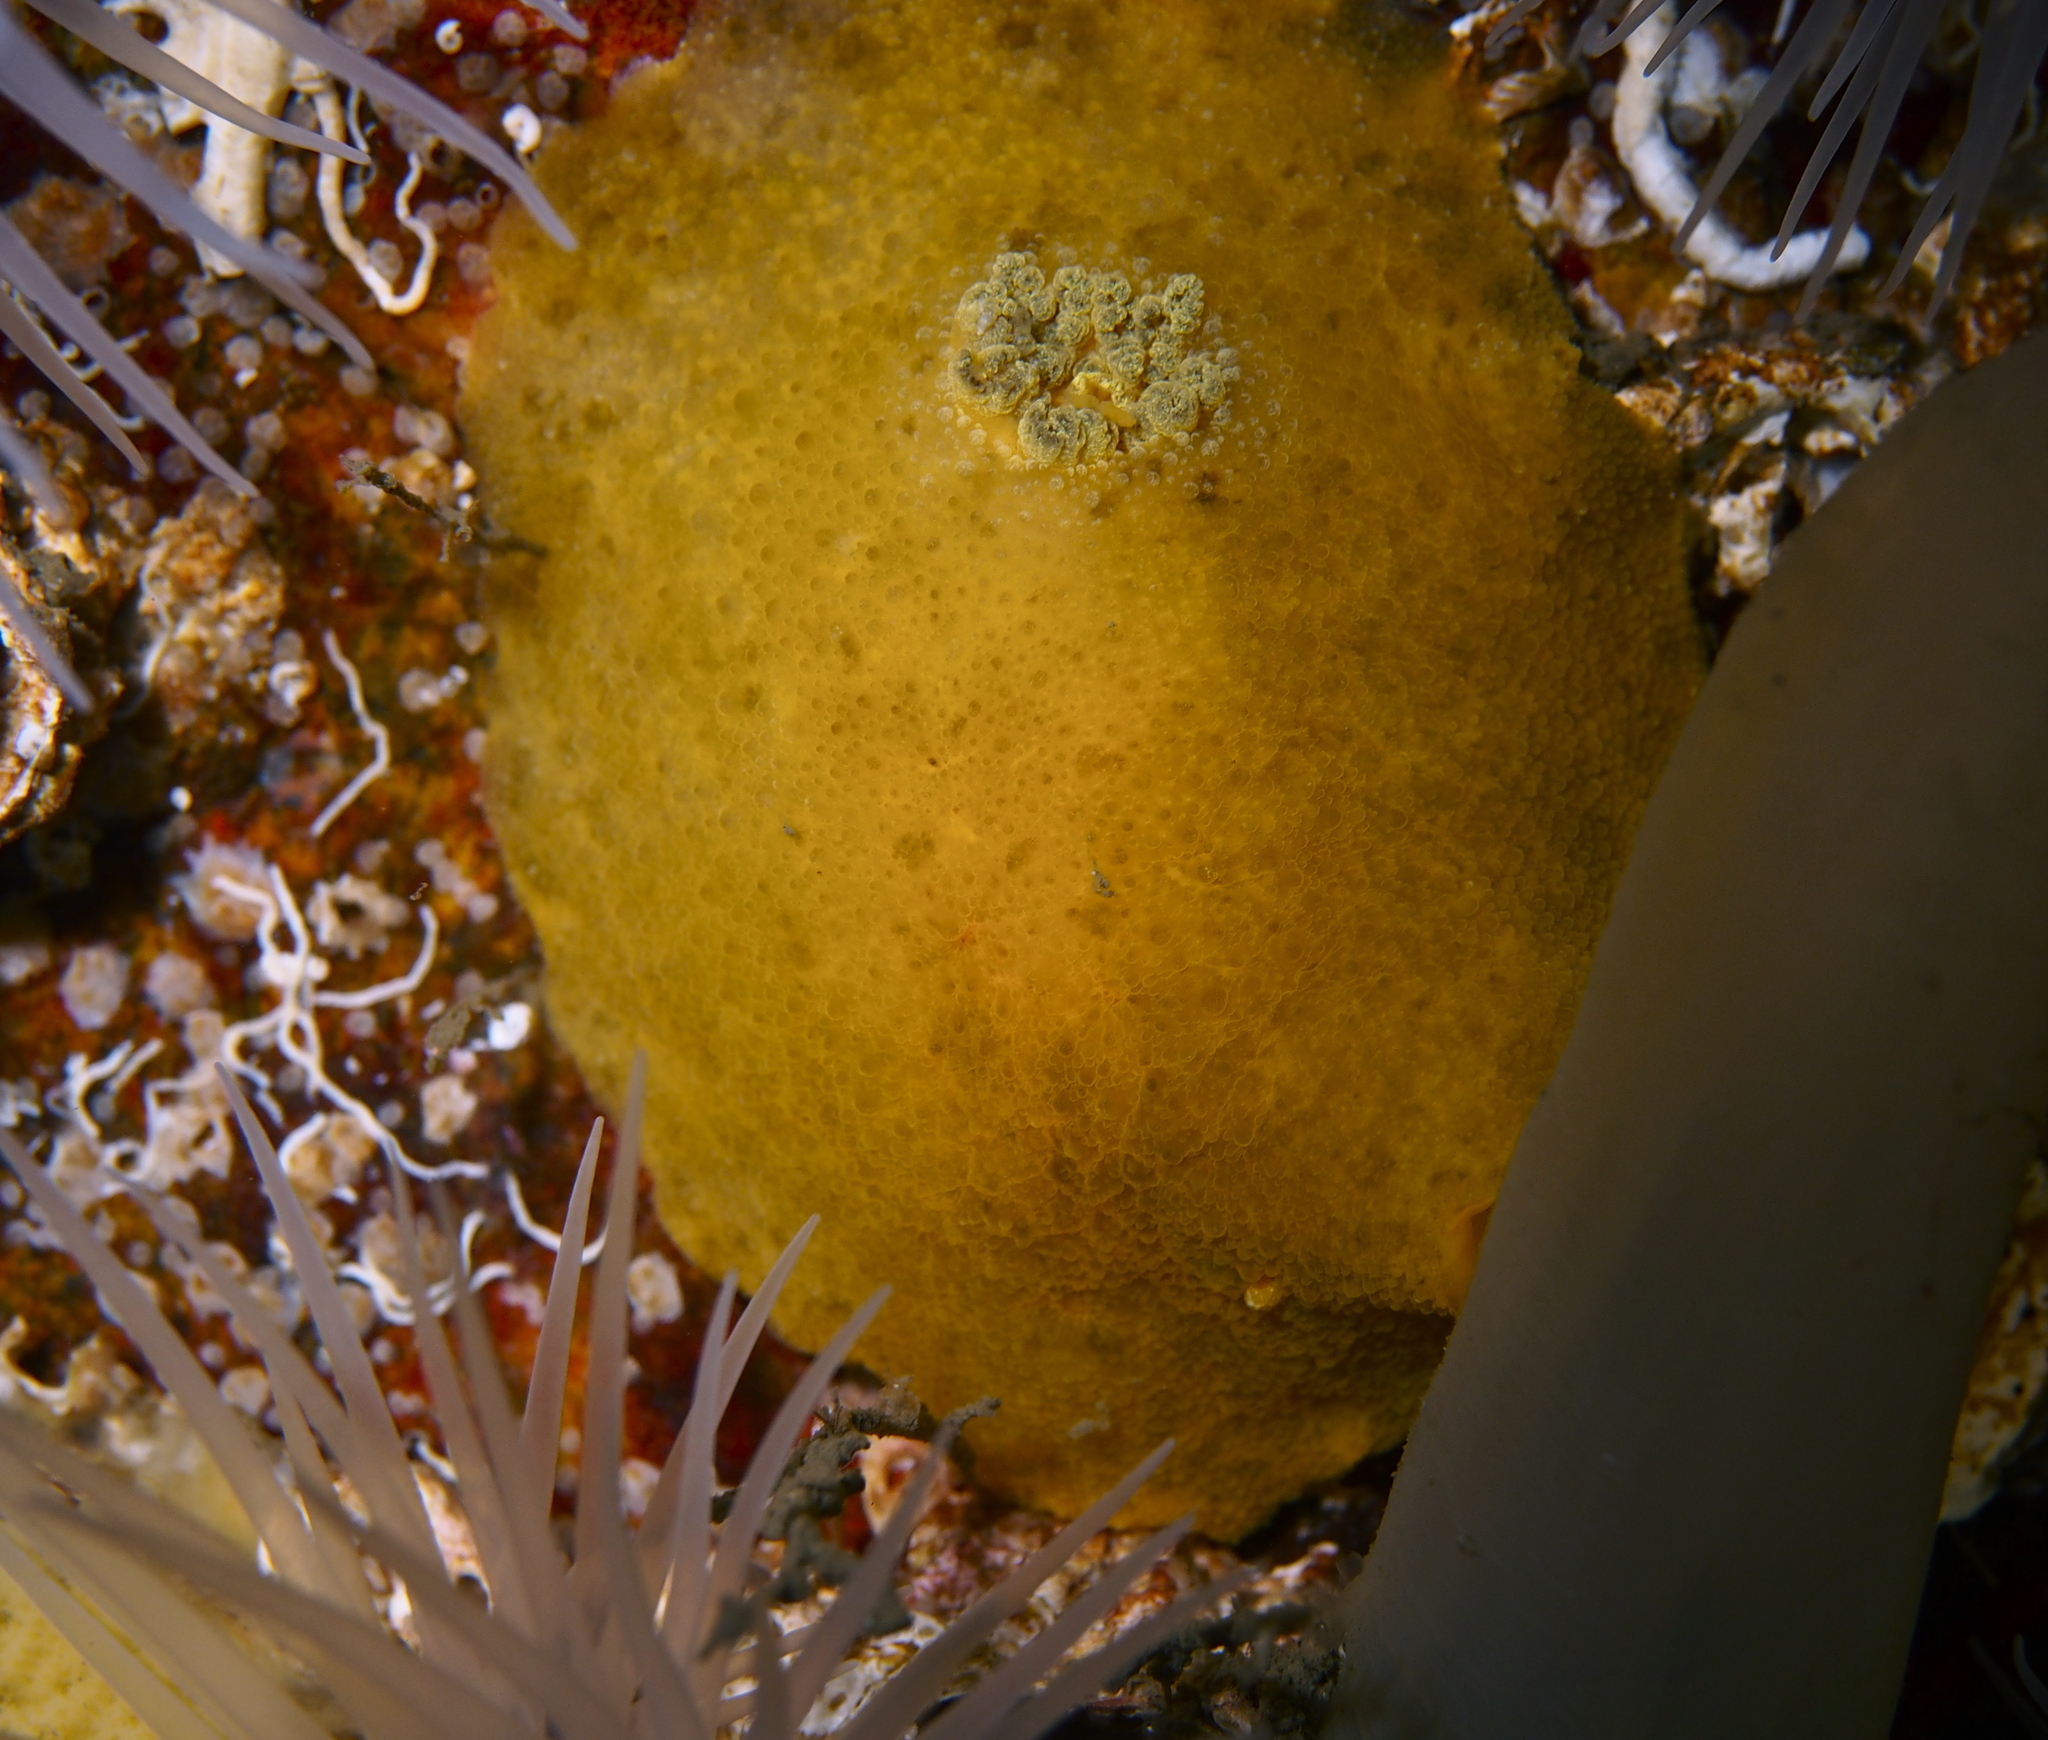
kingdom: Animalia
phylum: Mollusca
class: Gastropoda
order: Nudibranchia
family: Dorididae
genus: Doris
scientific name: Doris pseudoargus
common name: Sea lemon
